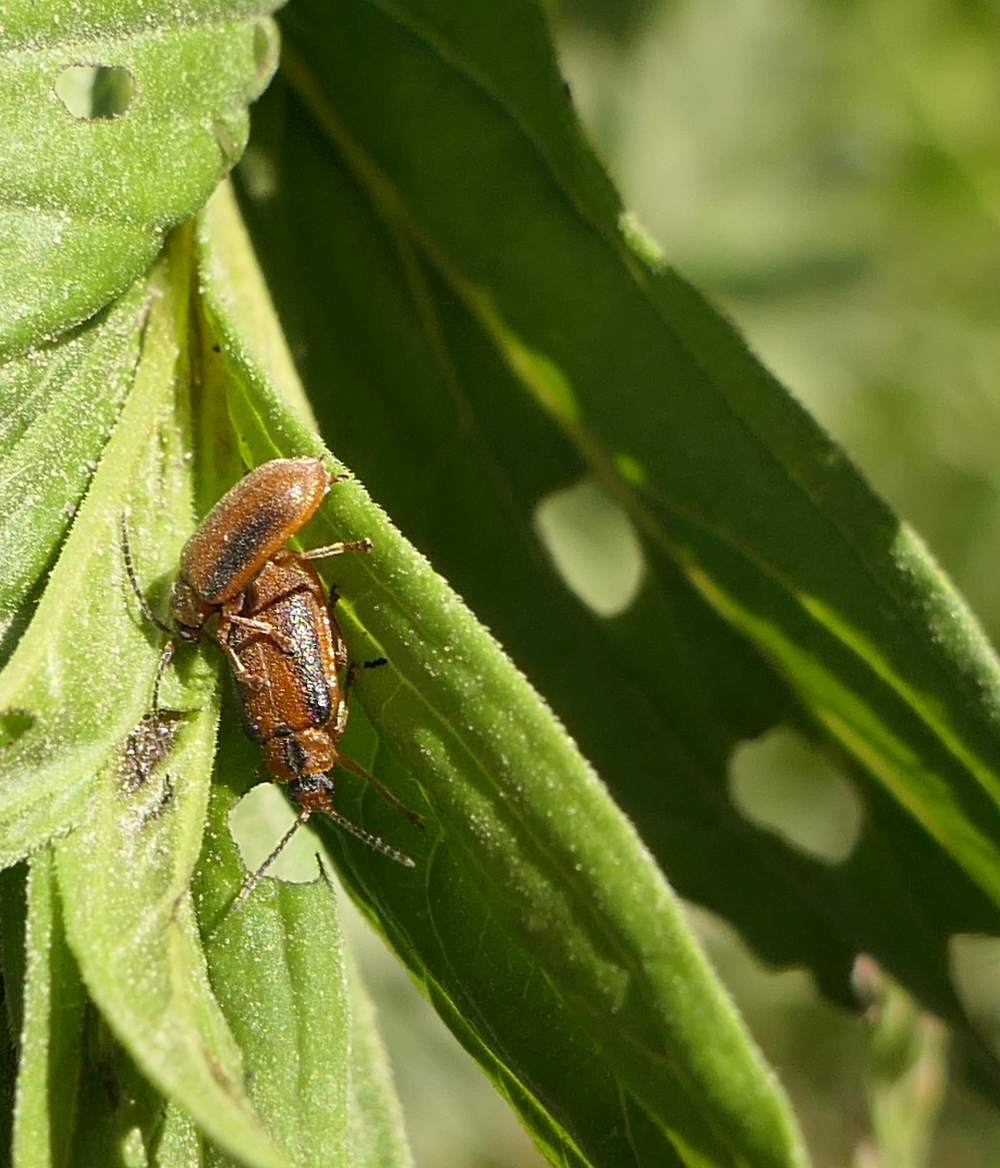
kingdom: Animalia
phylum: Arthropoda
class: Insecta
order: Coleoptera
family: Chrysomelidae
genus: Neogalerucella
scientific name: Neogalerucella calmariensis
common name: Black-margined loosestrife beetle
